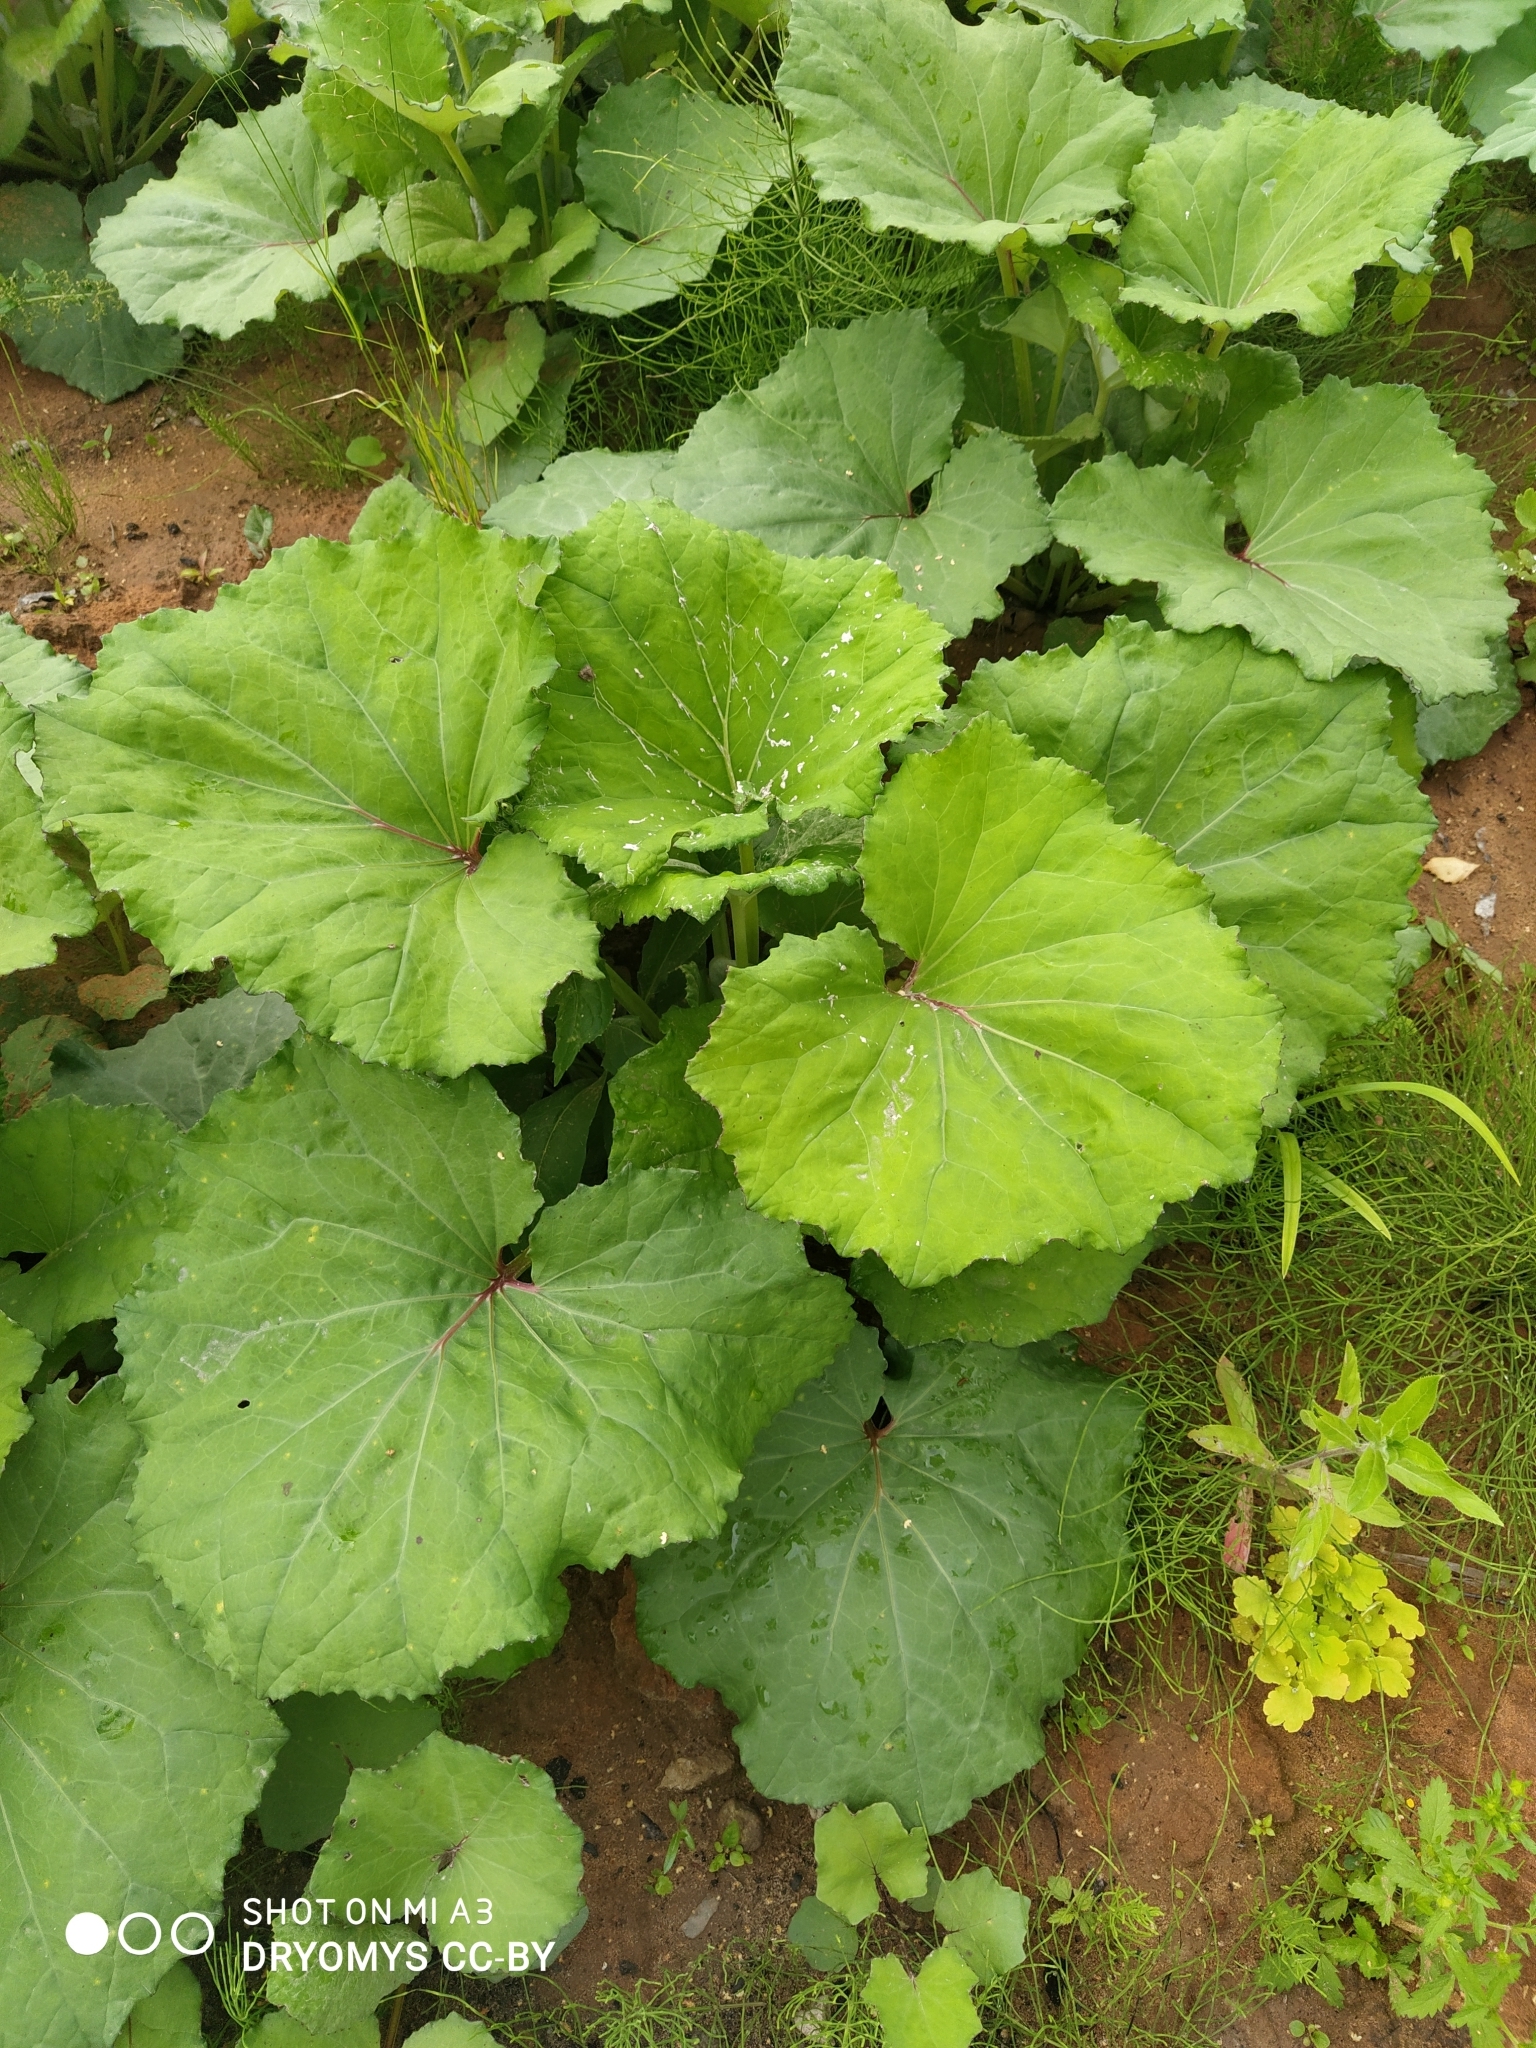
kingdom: Plantae
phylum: Tracheophyta
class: Magnoliopsida
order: Asterales
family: Asteraceae
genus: Tussilago
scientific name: Tussilago farfara
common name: Coltsfoot
